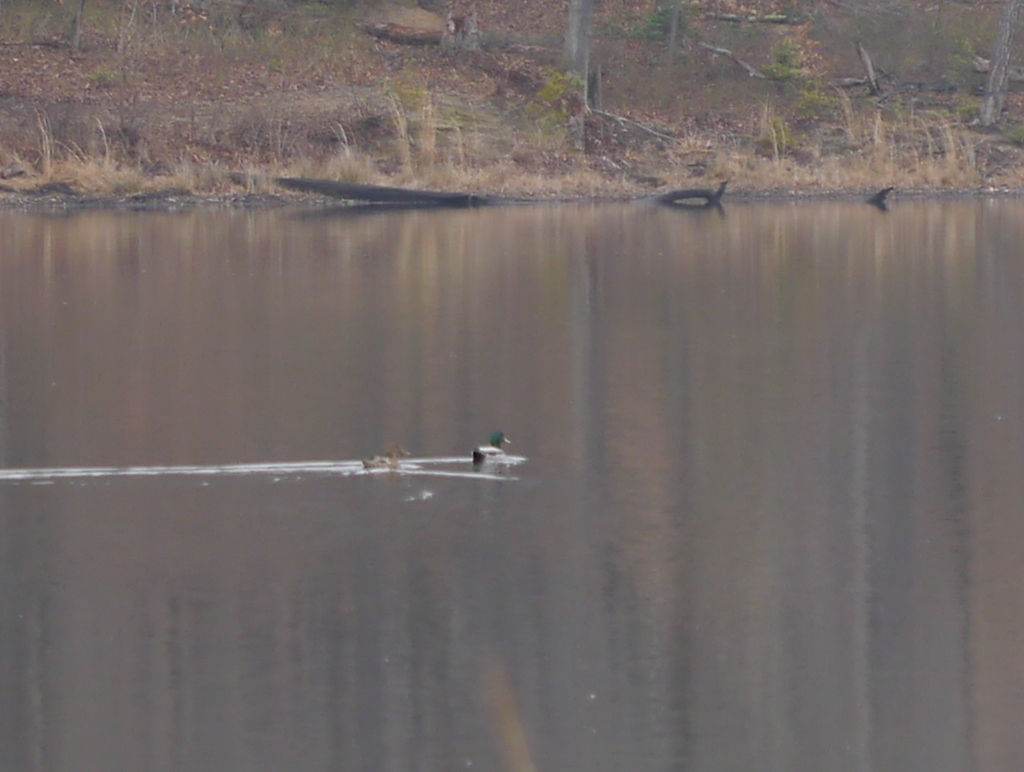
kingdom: Animalia
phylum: Chordata
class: Aves
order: Anseriformes
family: Anatidae
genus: Anas
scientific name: Anas platyrhynchos
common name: Mallard
